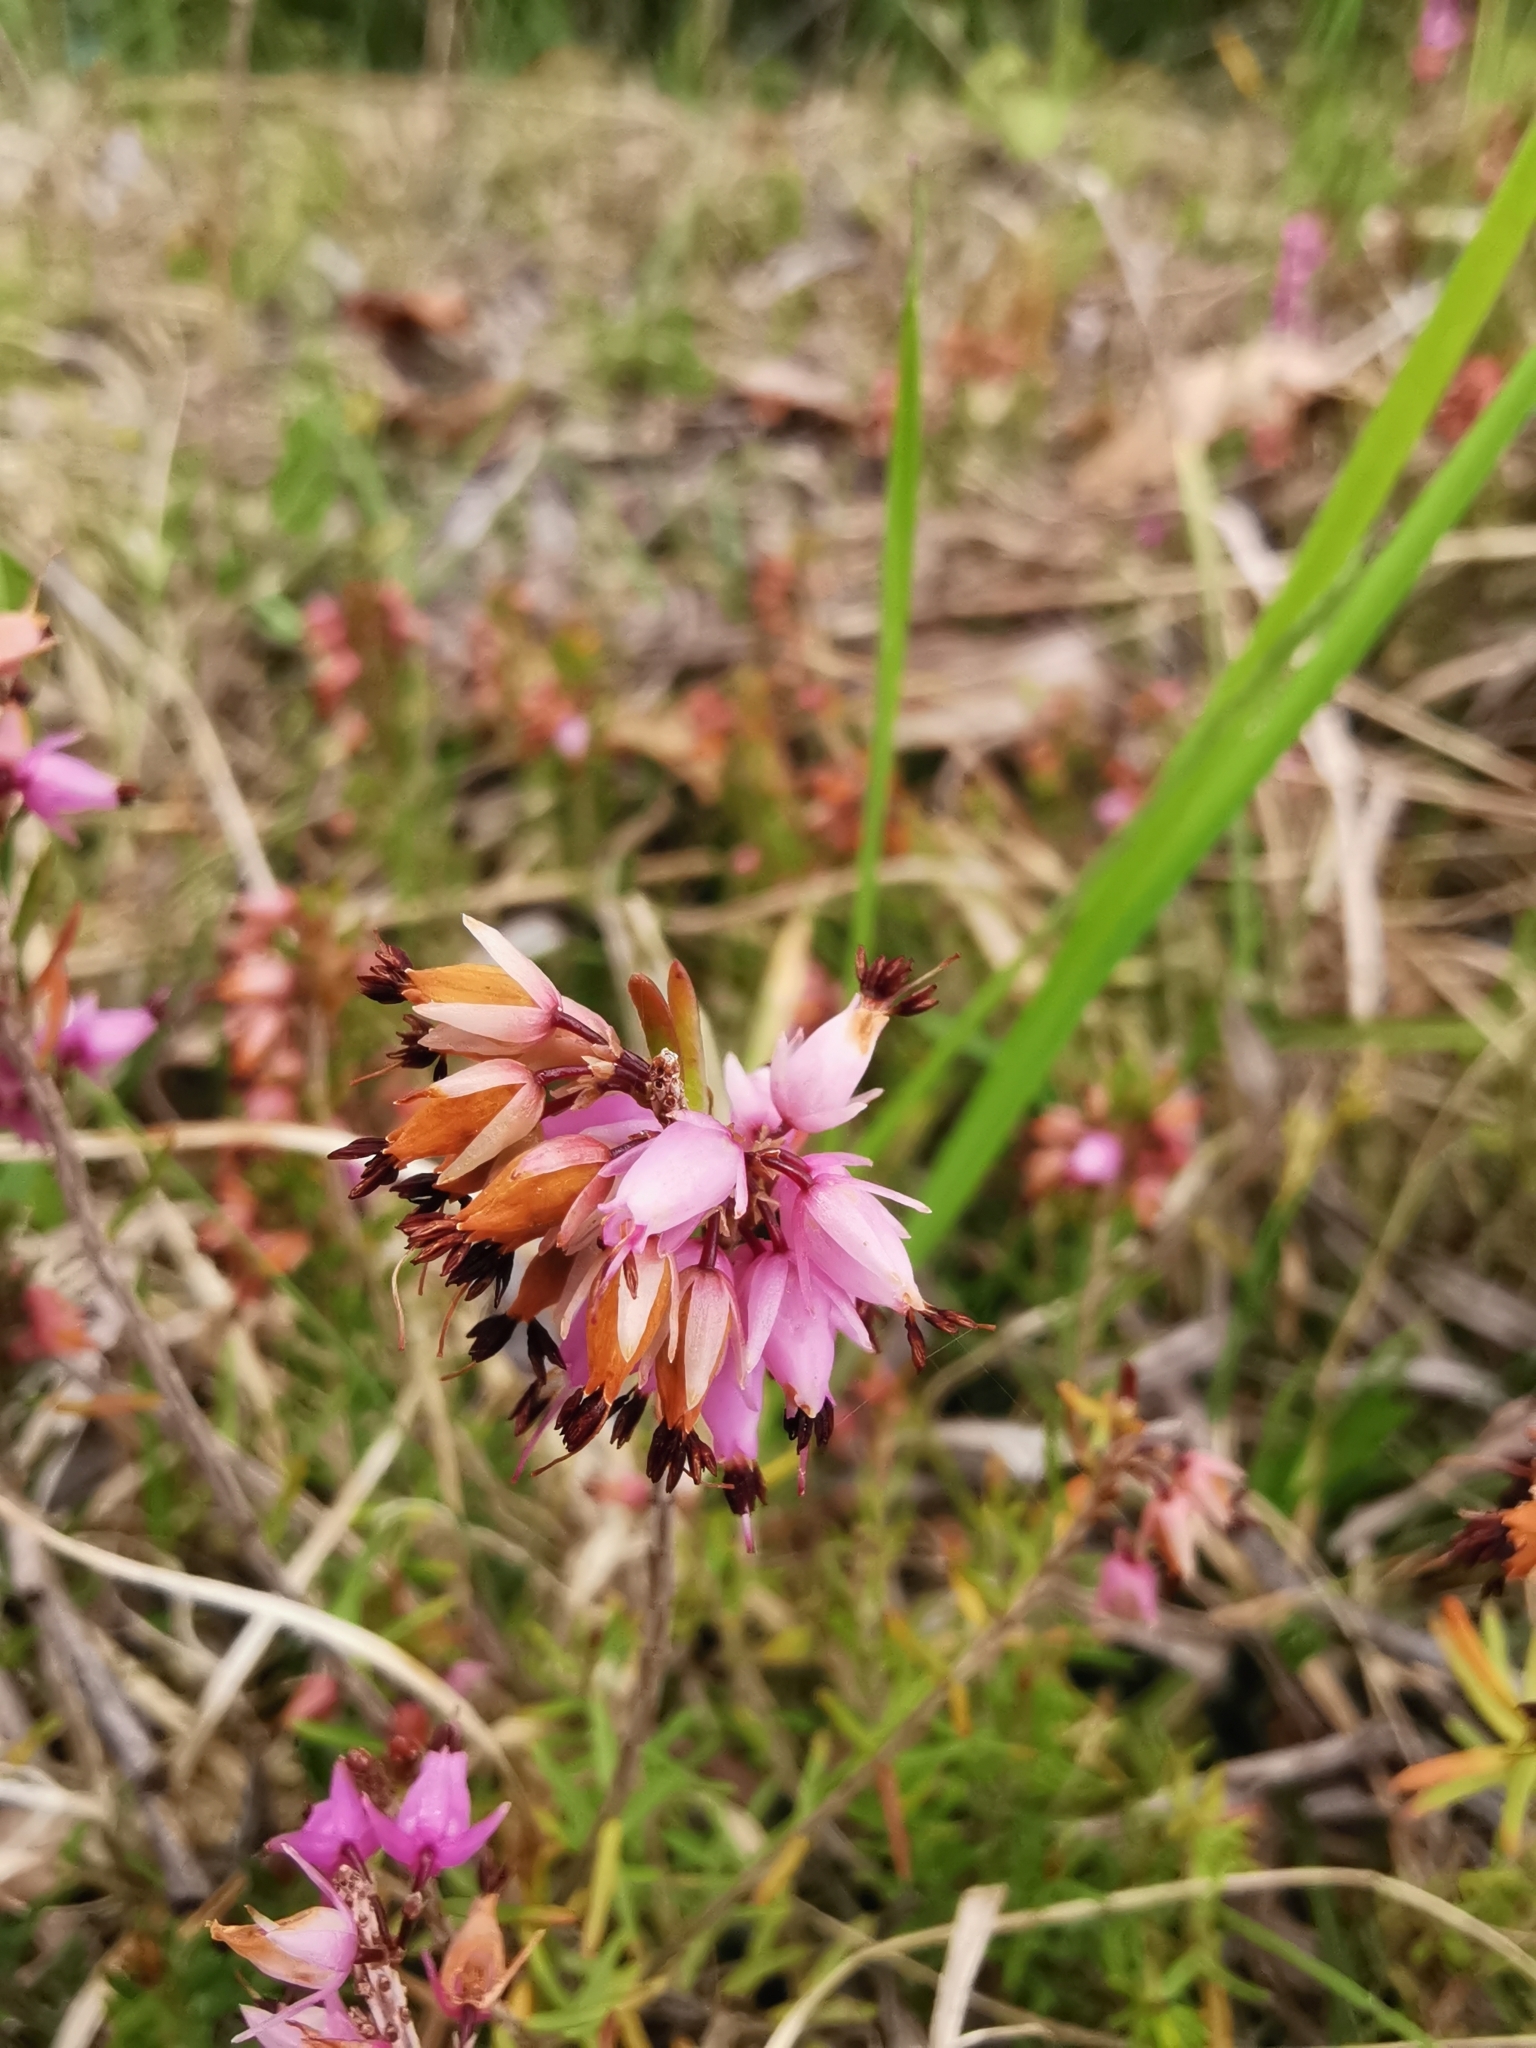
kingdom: Plantae
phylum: Tracheophyta
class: Magnoliopsida
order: Ericales
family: Ericaceae
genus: Erica
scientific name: Erica carnea
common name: Winter heath
